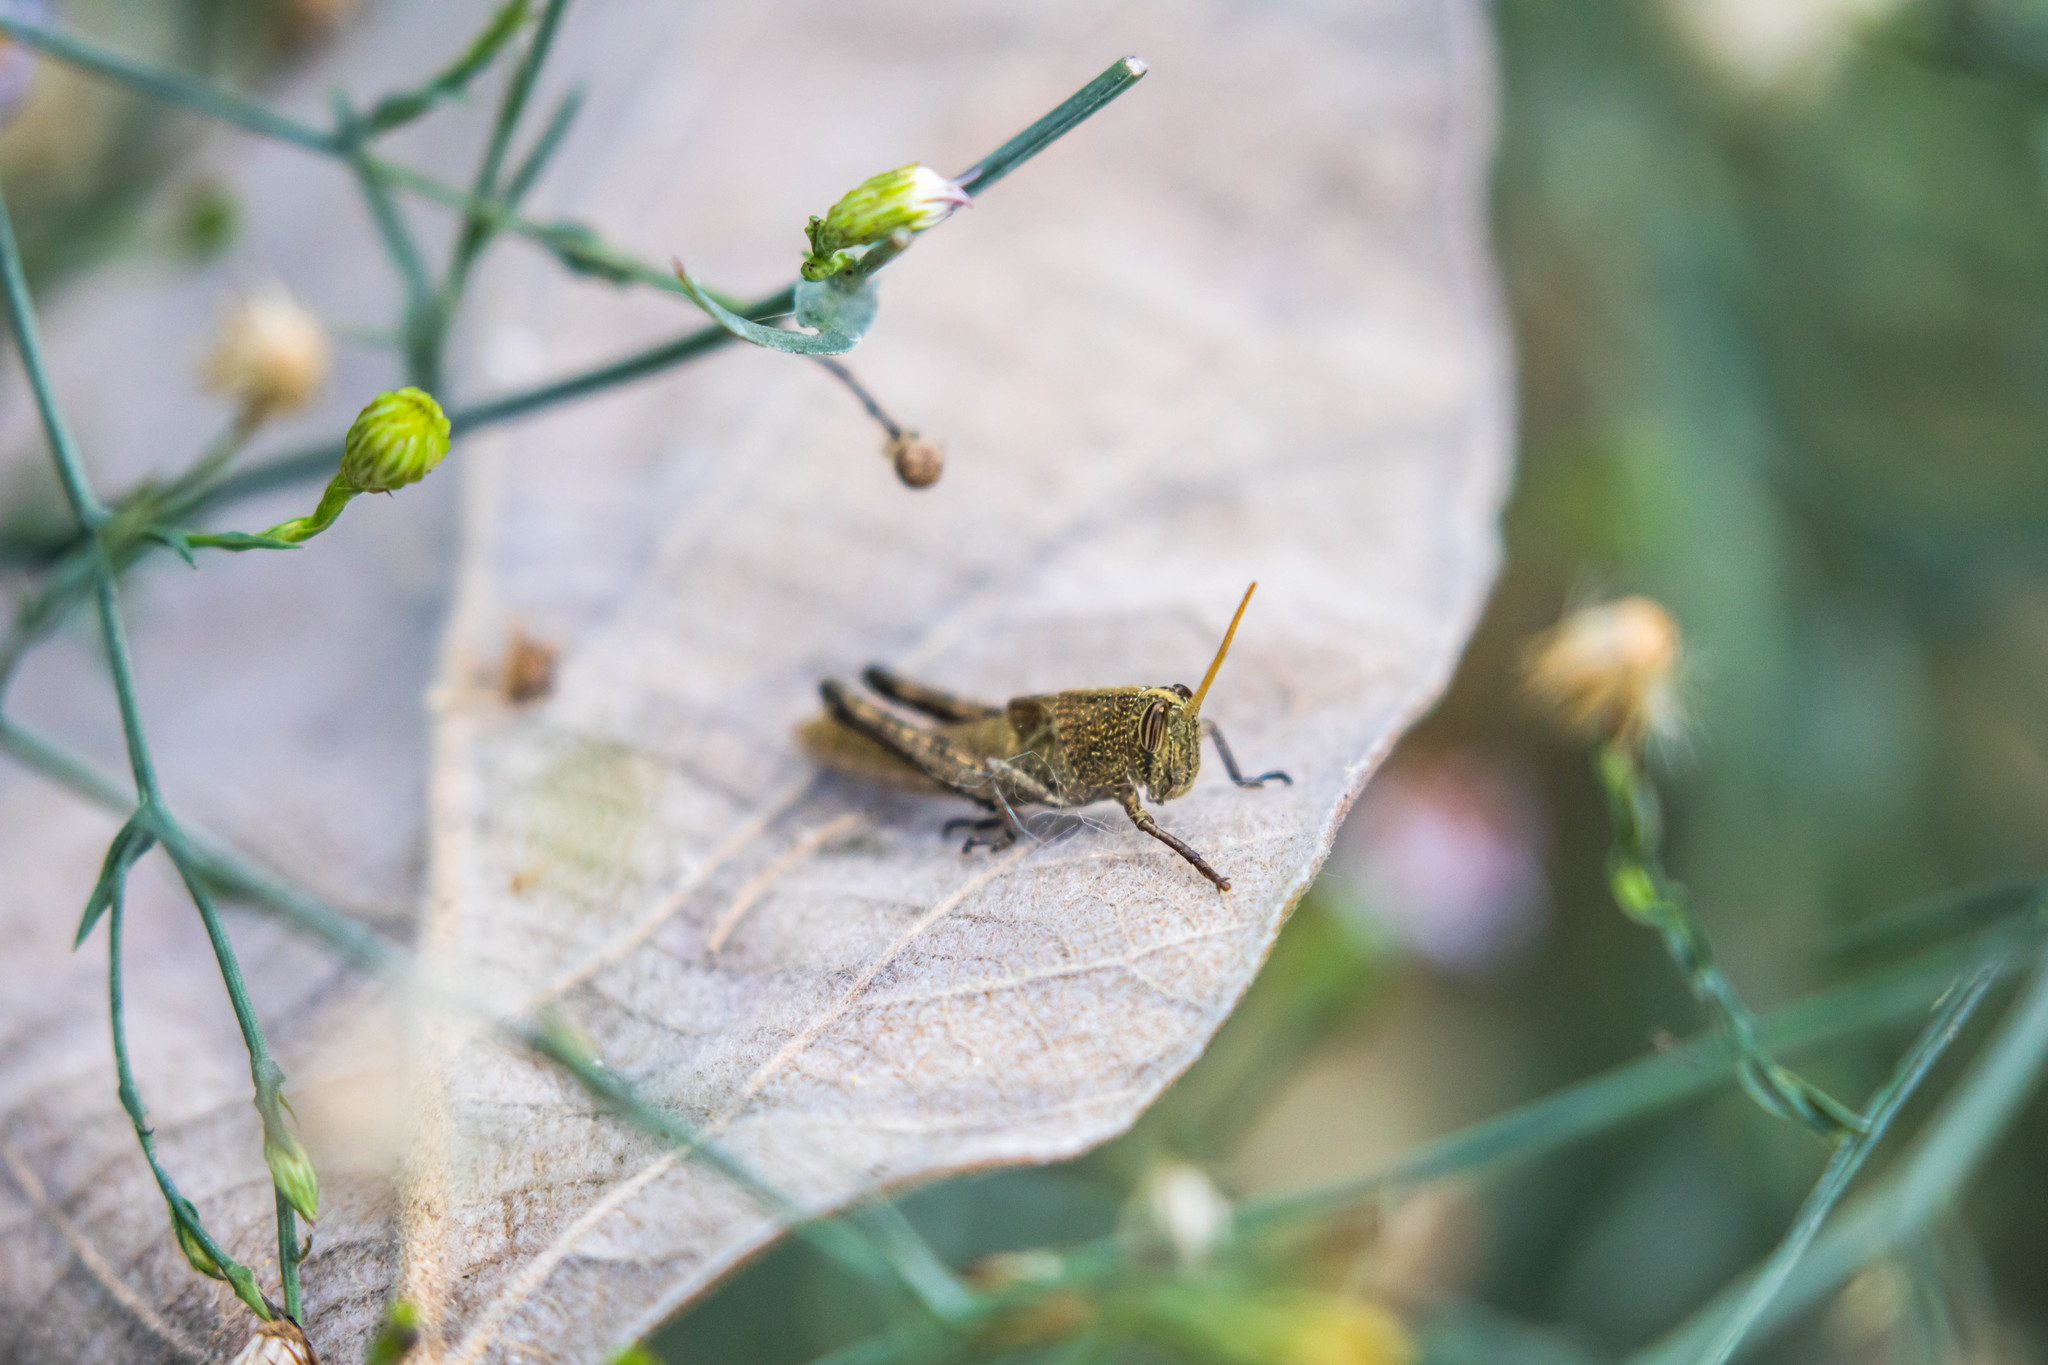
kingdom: Animalia
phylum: Arthropoda
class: Insecta
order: Orthoptera
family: Acrididae
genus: Schistocerca
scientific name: Schistocerca impleta
